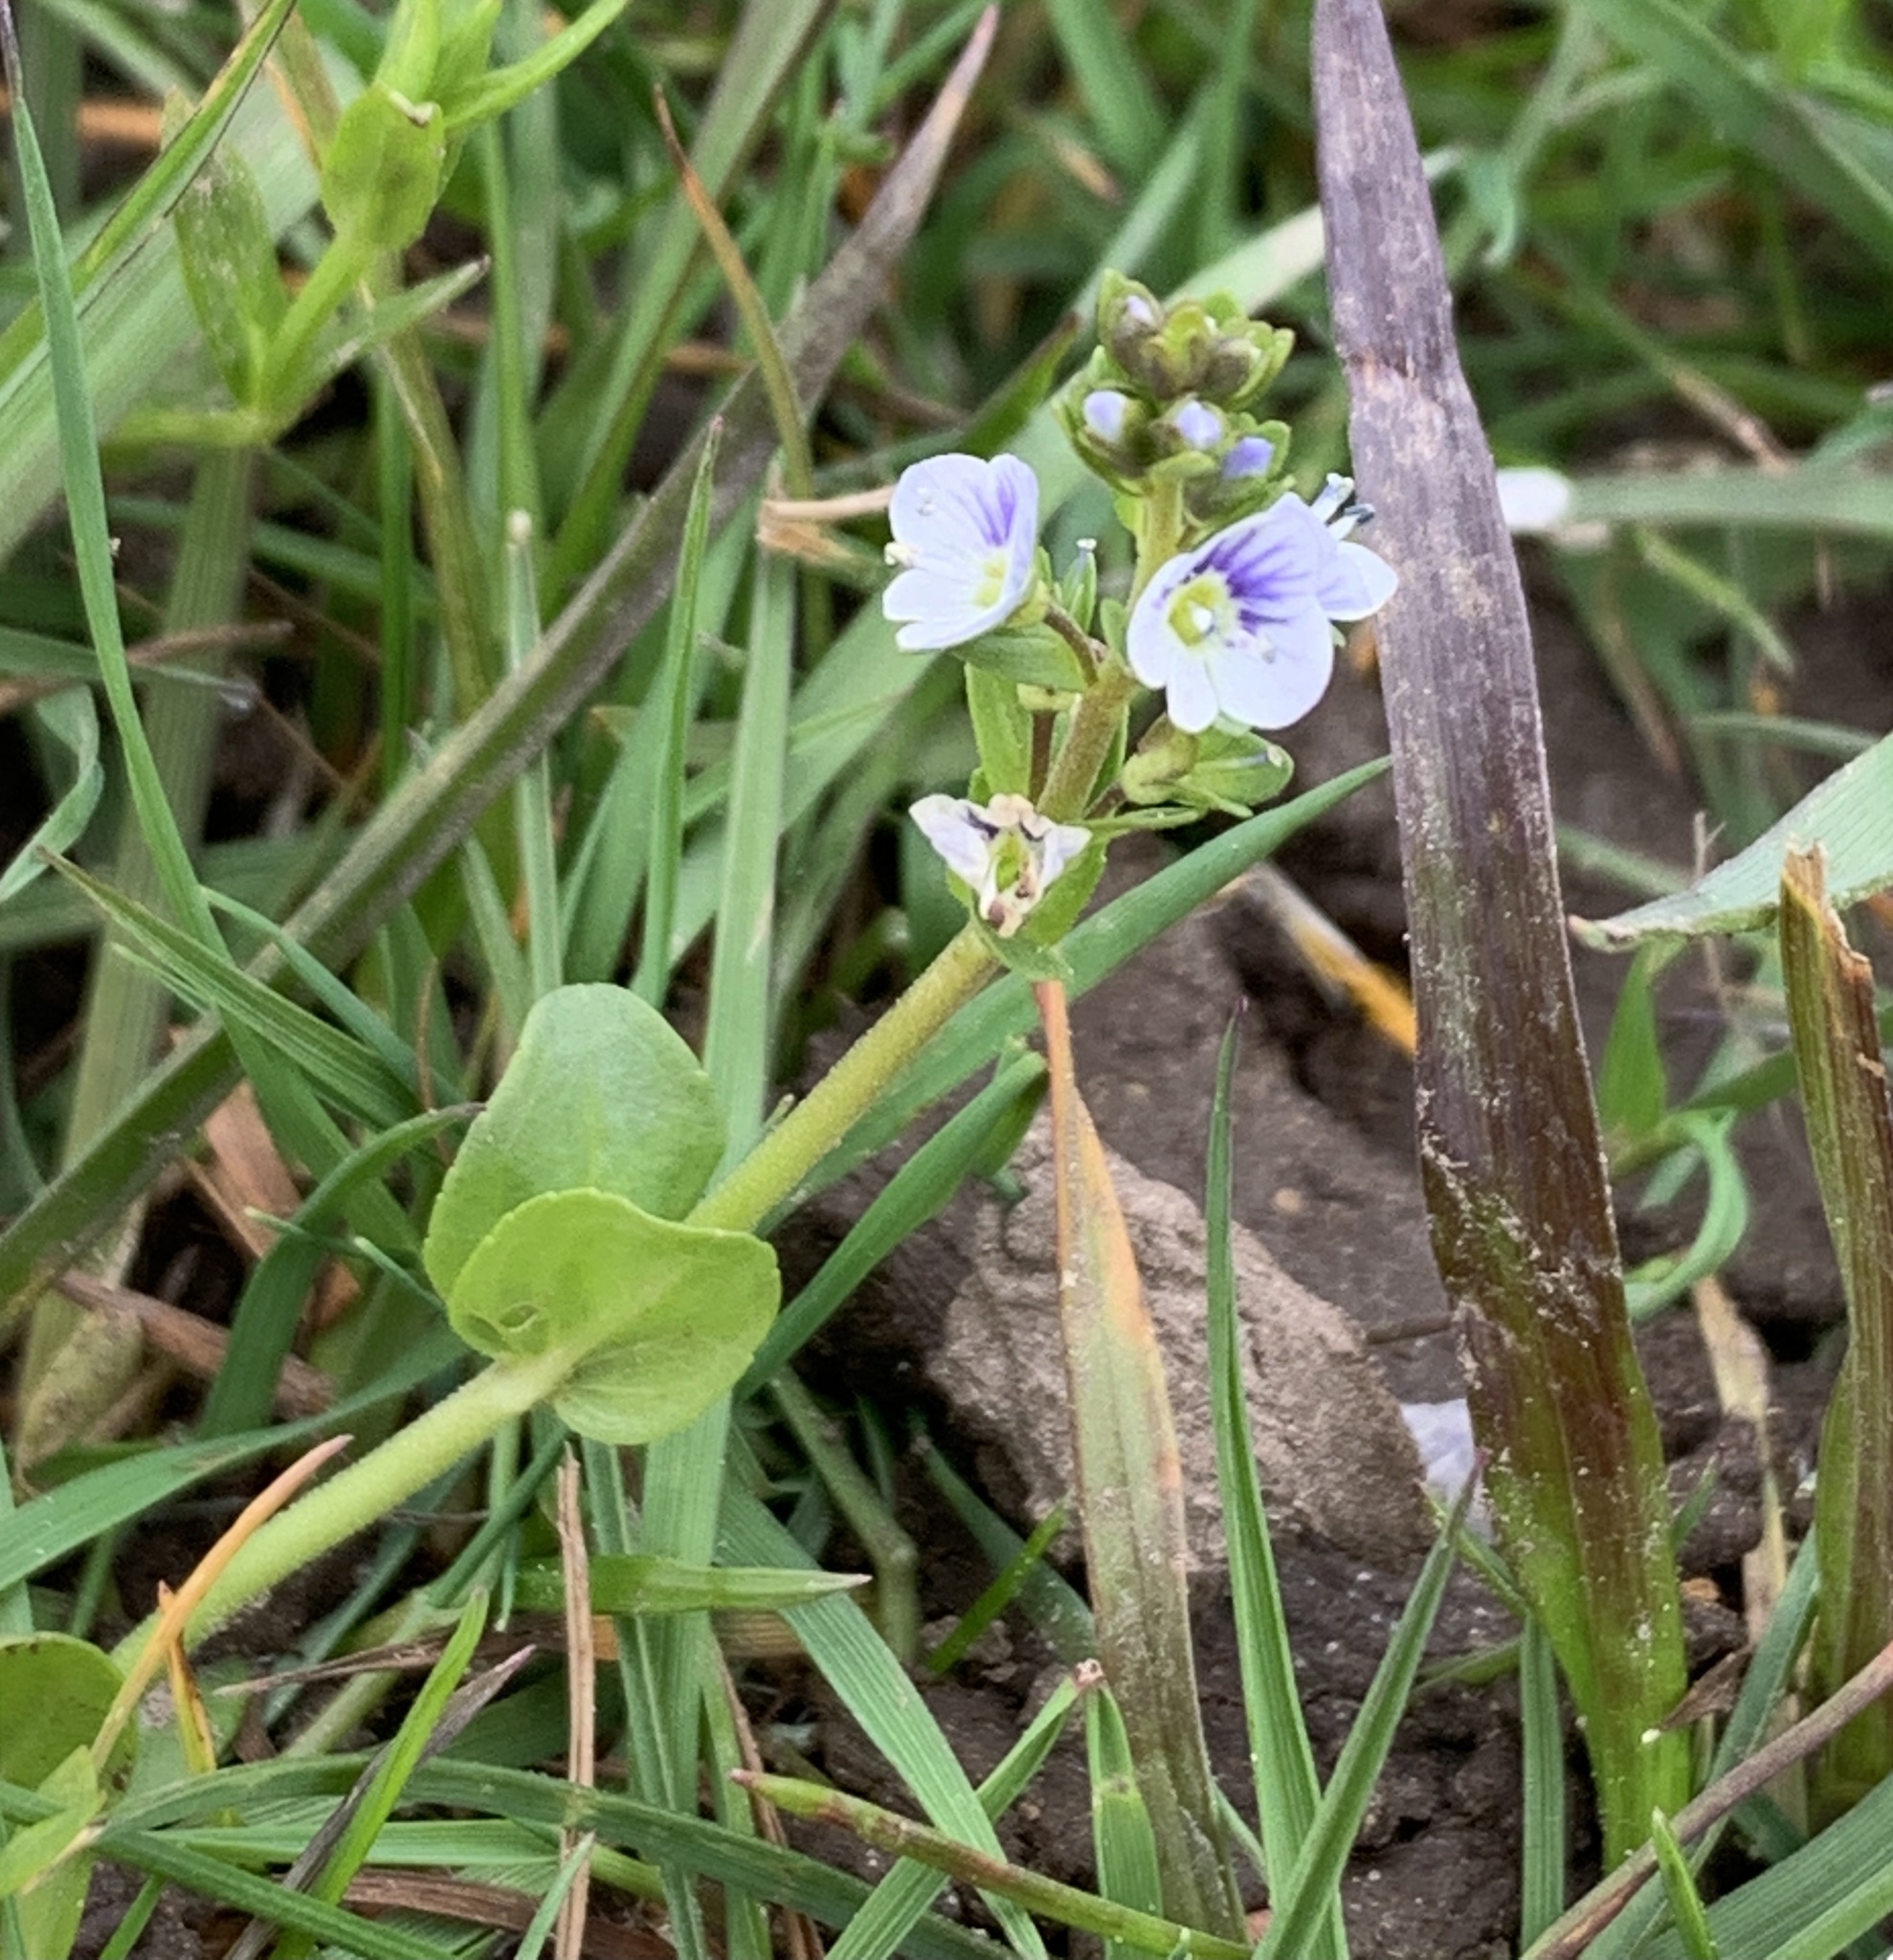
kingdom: Plantae
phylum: Tracheophyta
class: Magnoliopsida
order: Lamiales
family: Plantaginaceae
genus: Veronica
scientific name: Veronica serpyllifolia
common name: Thyme-leaved speedwell
